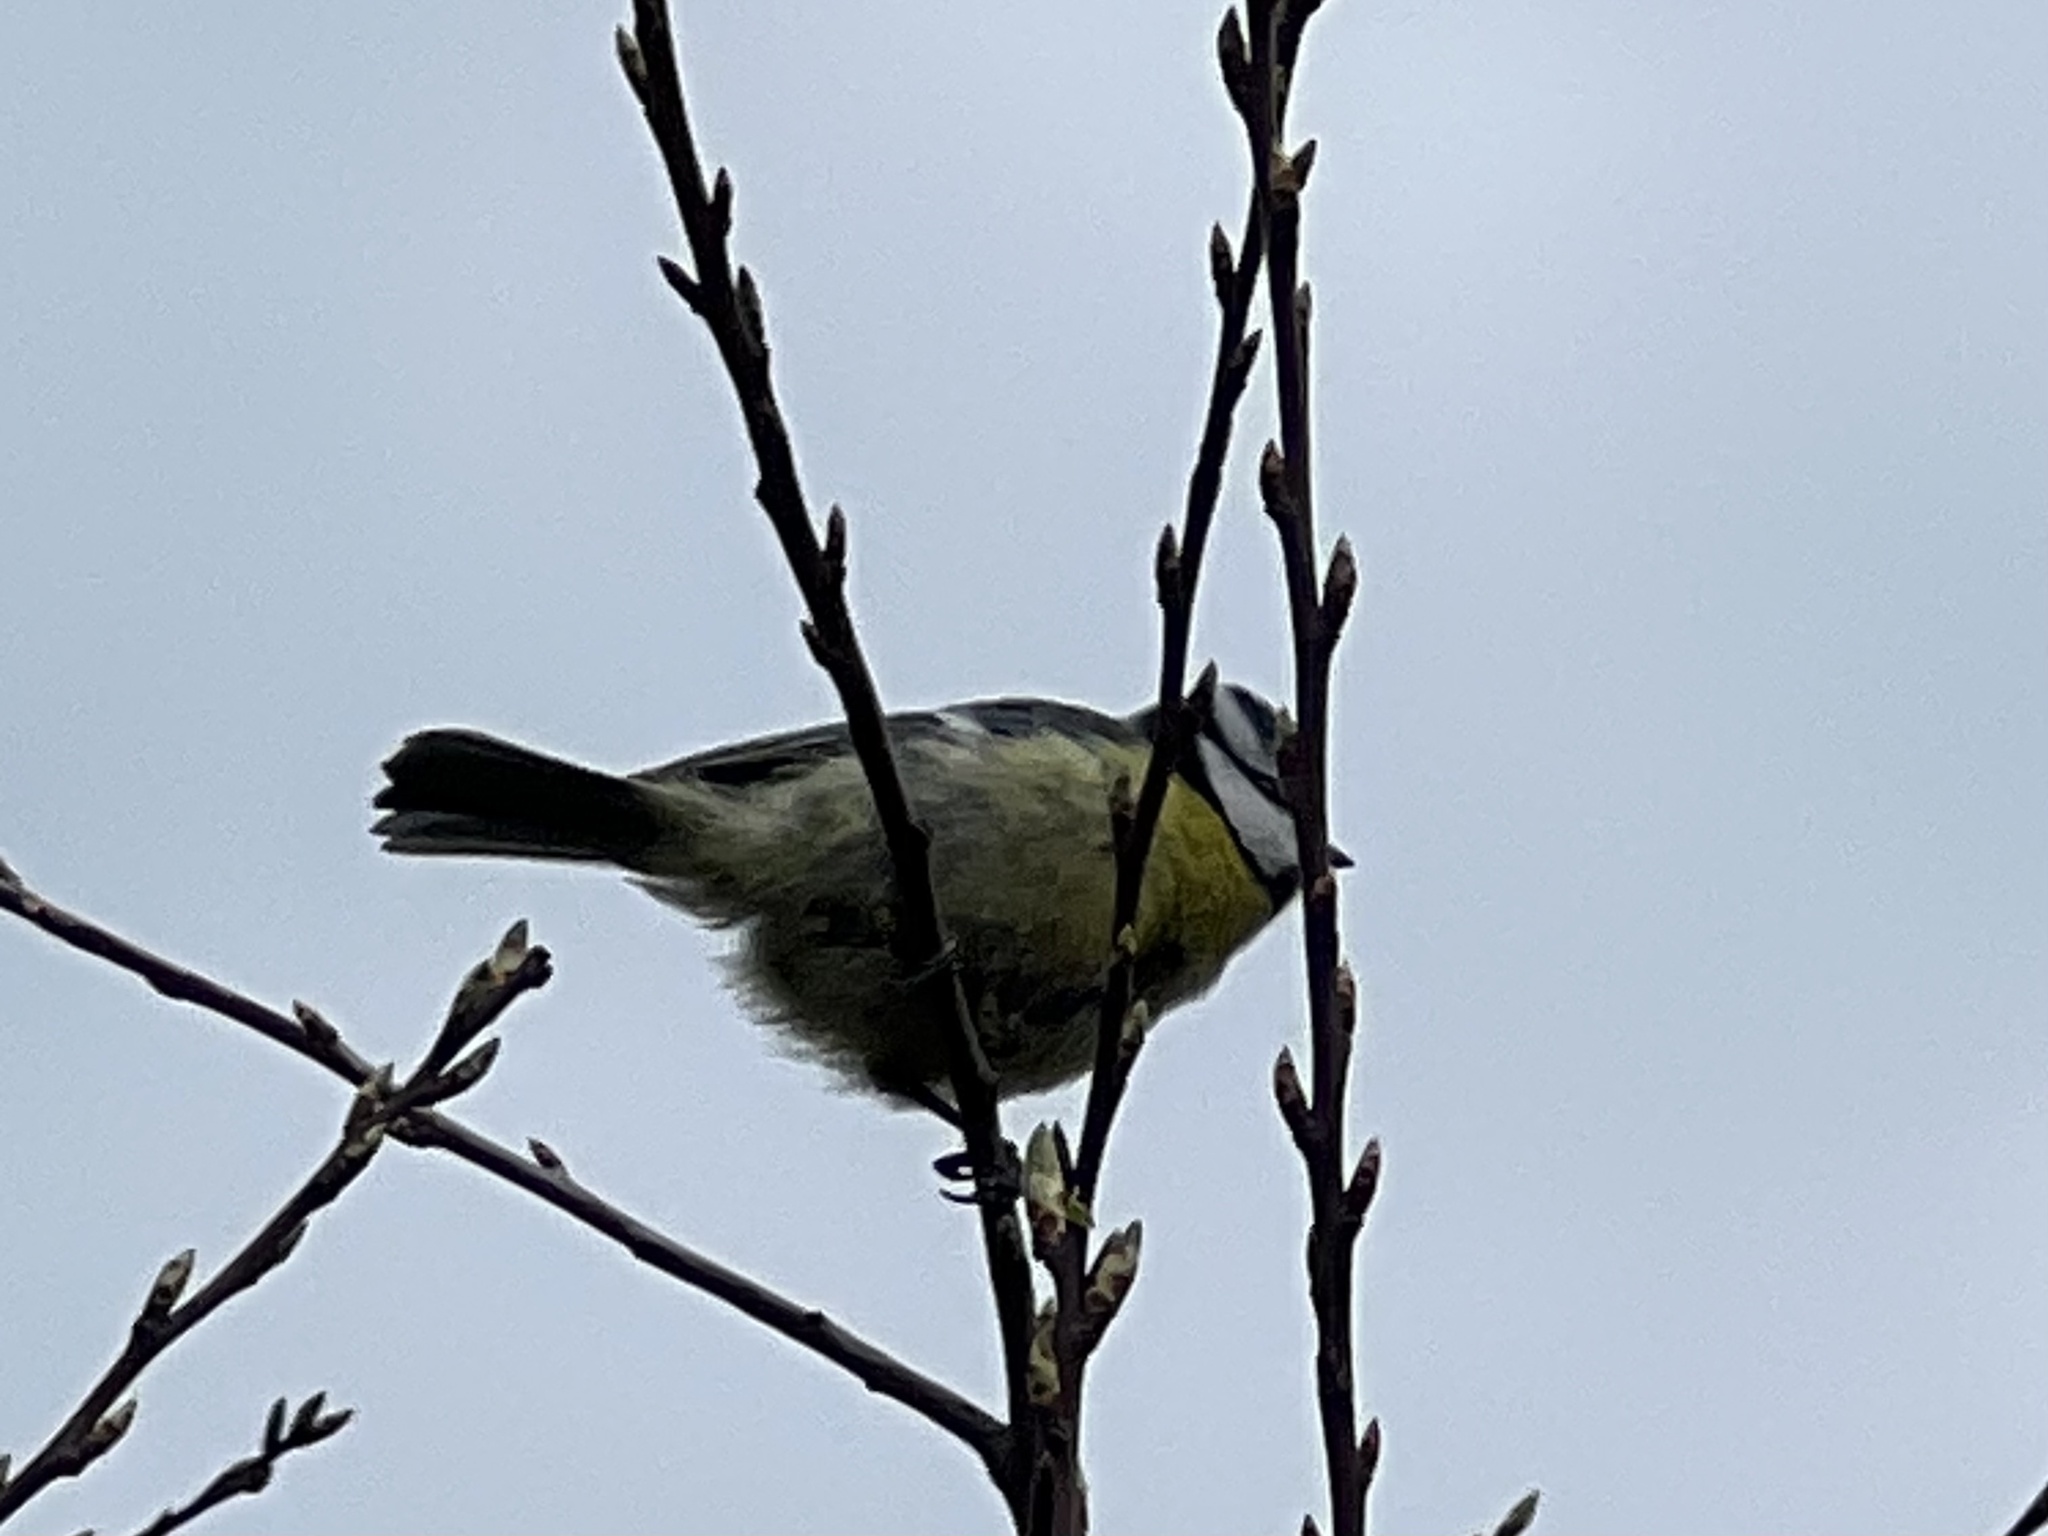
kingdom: Animalia
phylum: Chordata
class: Aves
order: Passeriformes
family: Paridae
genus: Cyanistes
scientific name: Cyanistes caeruleus
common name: Eurasian blue tit
